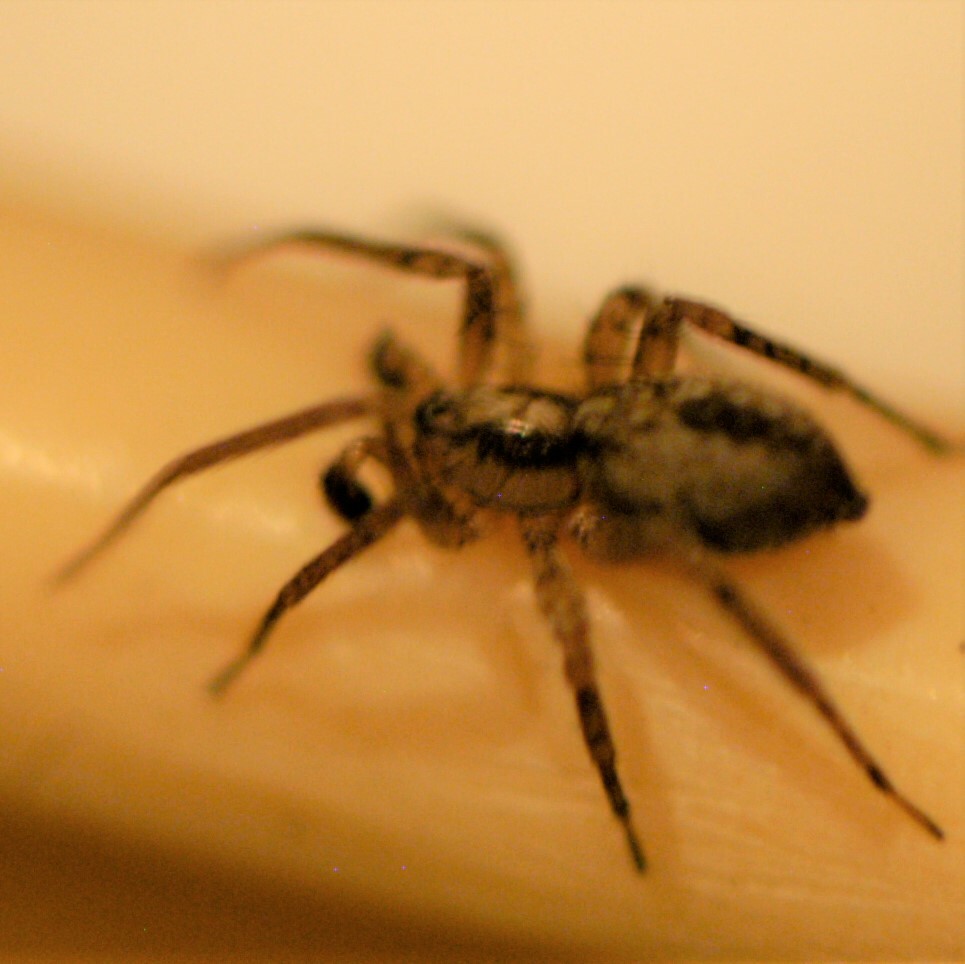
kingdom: Animalia
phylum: Arthropoda
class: Arachnida
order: Araneae
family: Anyphaenidae
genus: Anyphaena
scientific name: Anyphaena dixiana
